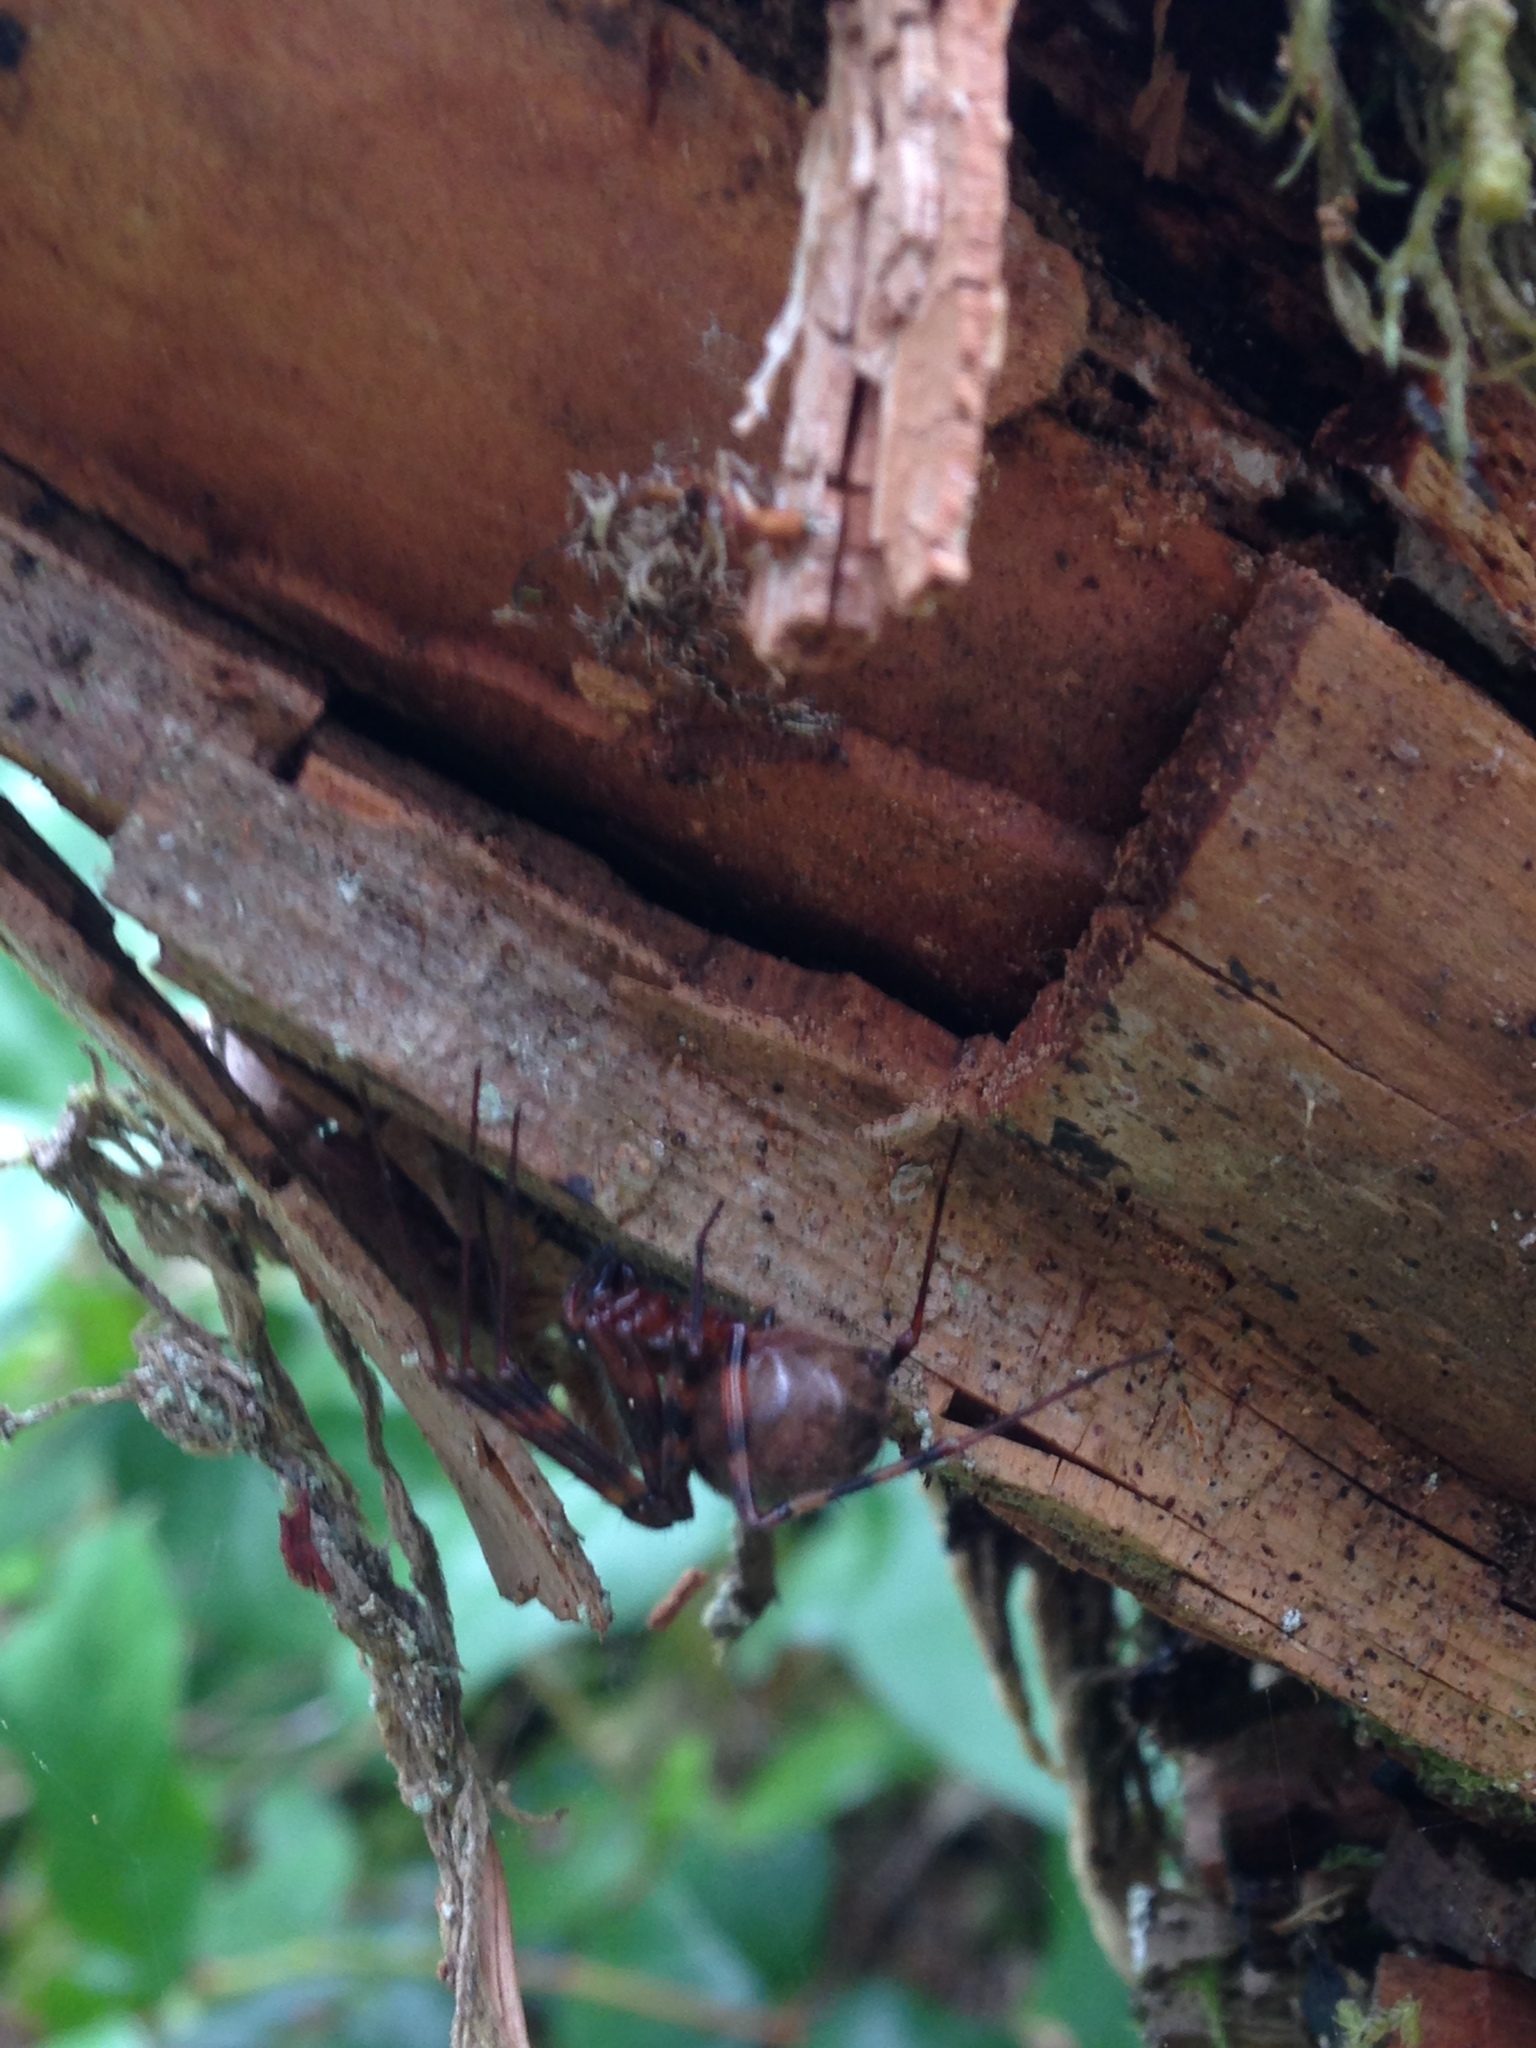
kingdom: Animalia
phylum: Arthropoda
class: Arachnida
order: Araneae
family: Pimoidae
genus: Pimoa
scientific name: Pimoa altioculata
